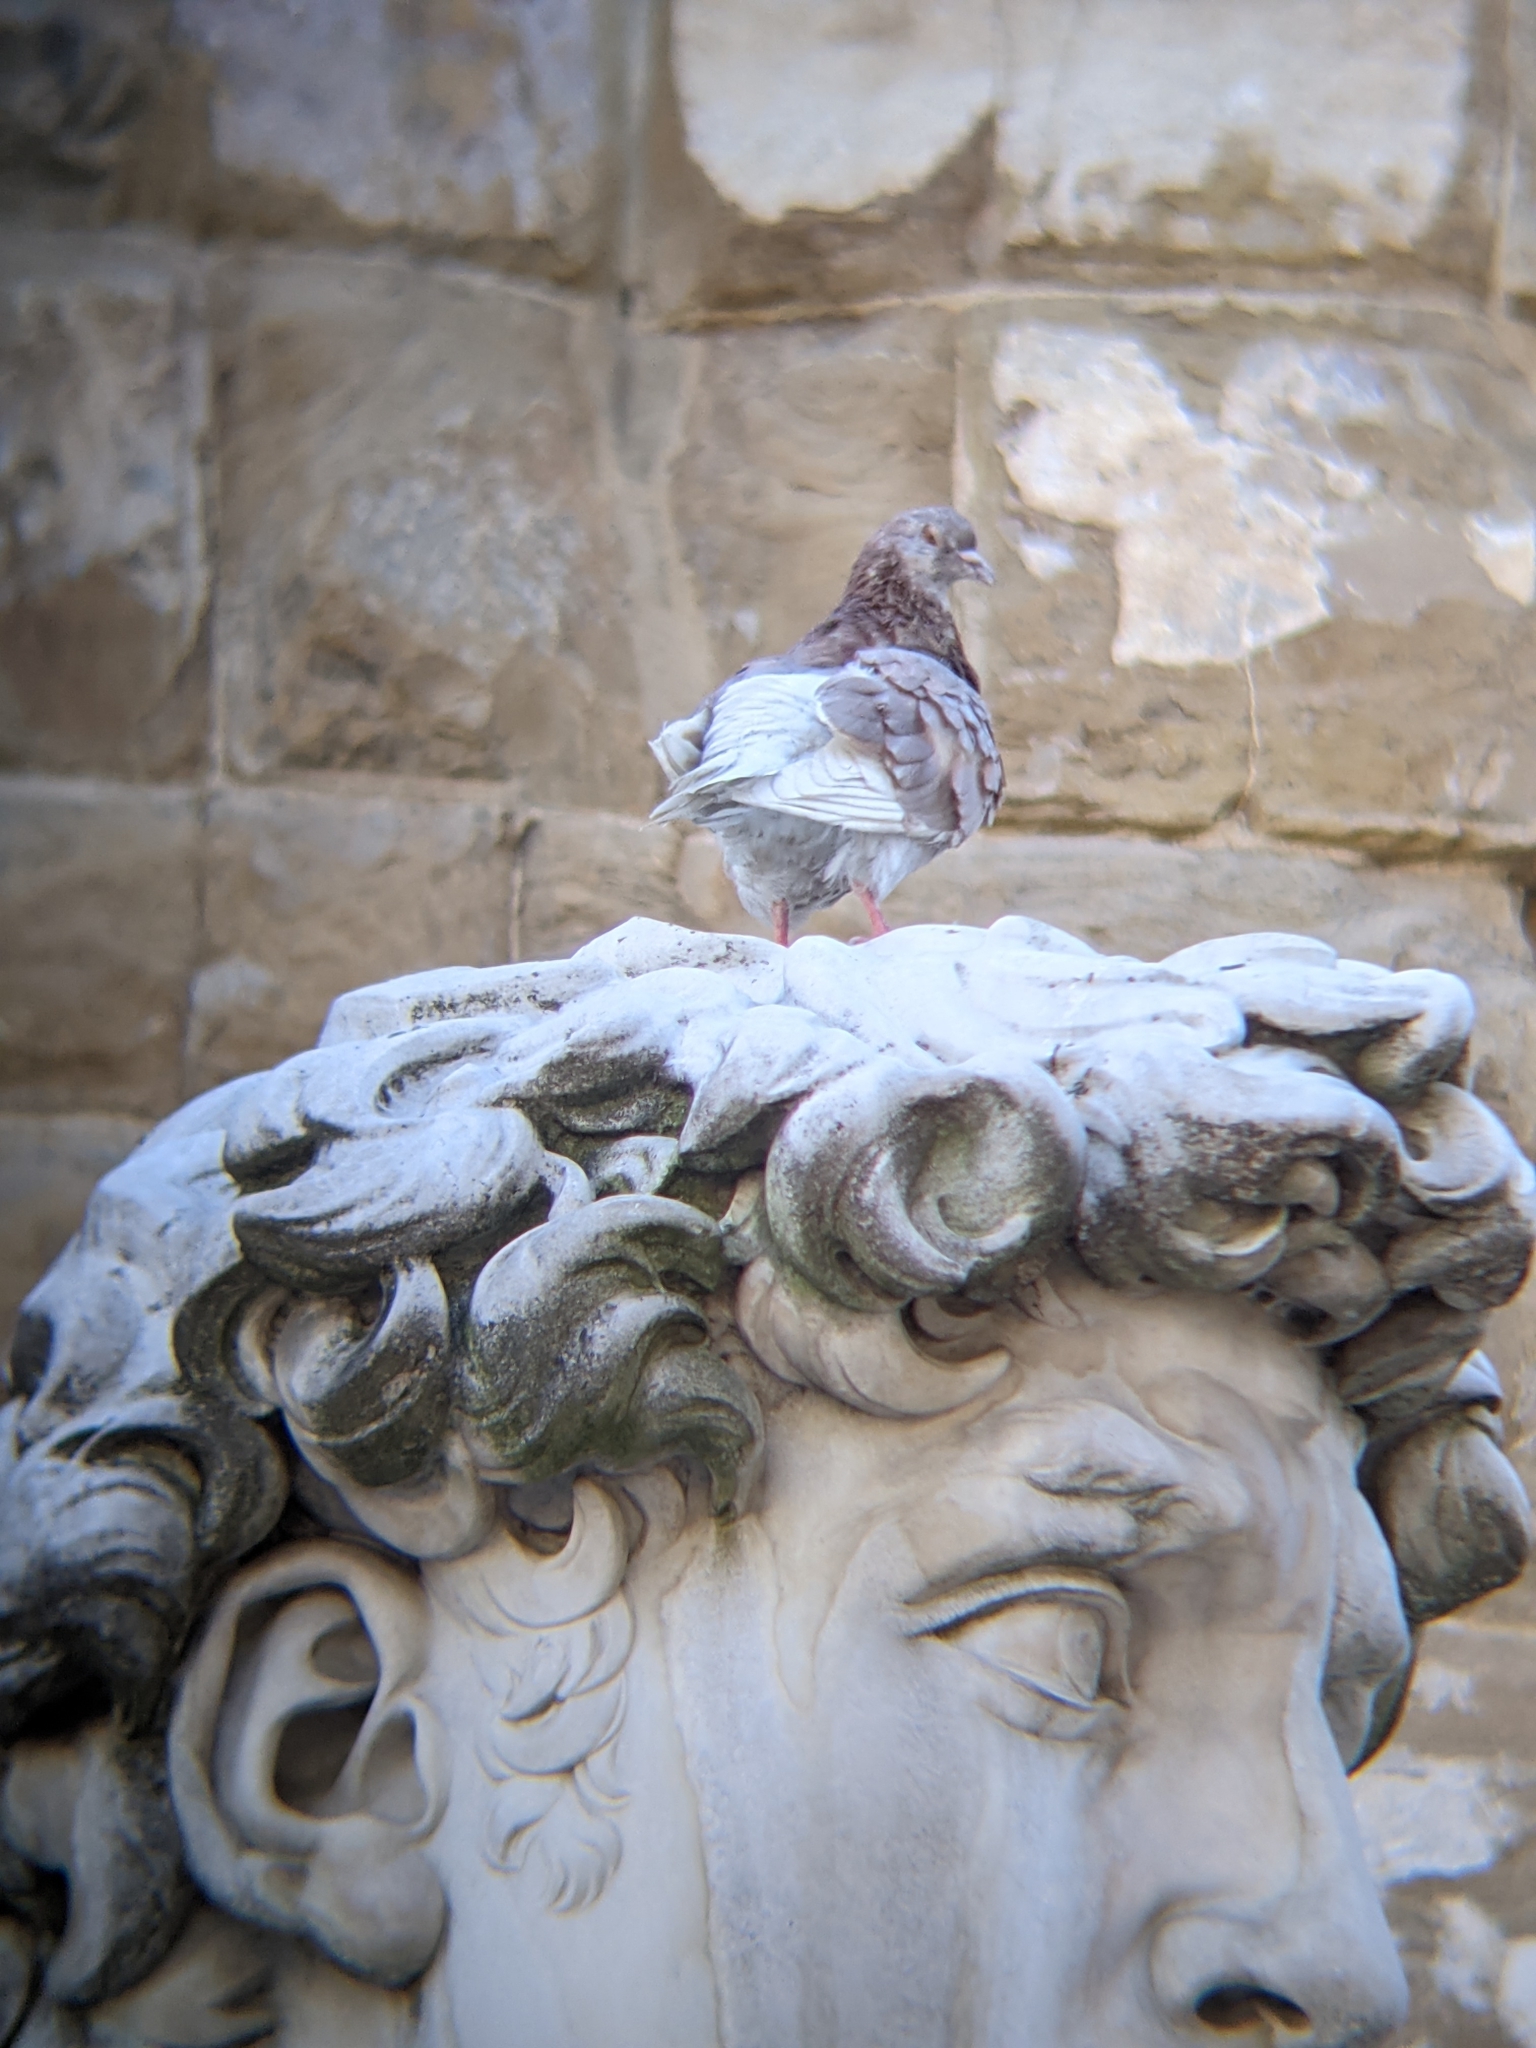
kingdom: Animalia
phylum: Chordata
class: Aves
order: Columbiformes
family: Columbidae
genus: Columba
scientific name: Columba livia
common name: Rock pigeon
